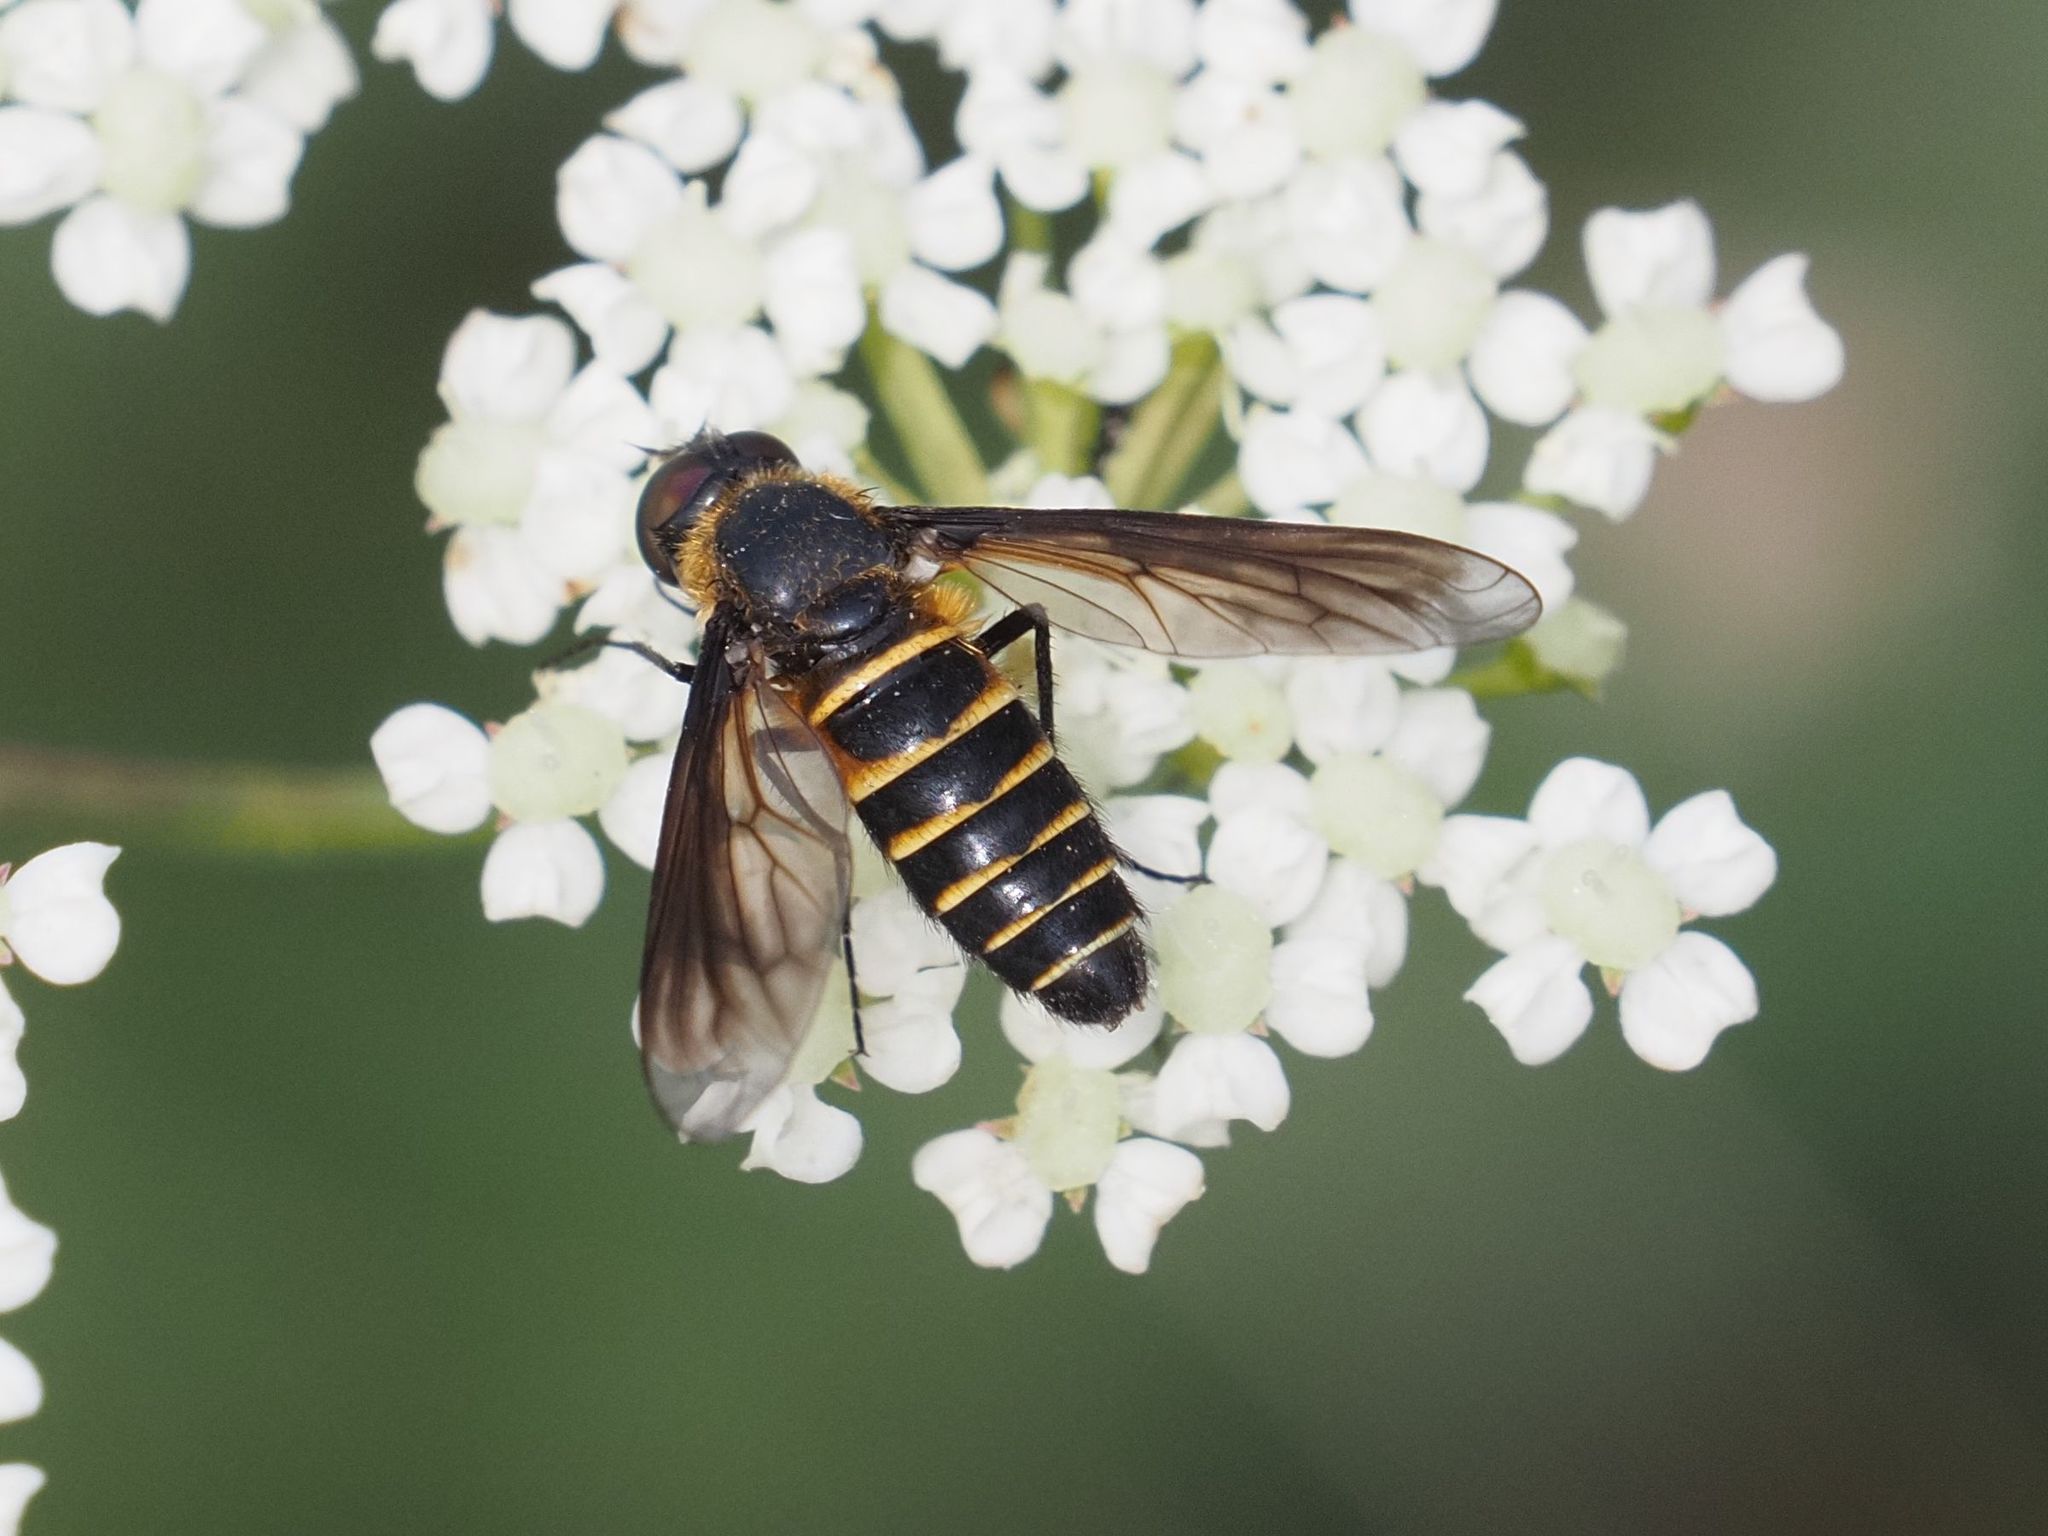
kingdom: Animalia
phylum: Arthropoda
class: Insecta
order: Diptera
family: Bombyliidae
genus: Lomatia
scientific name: Lomatia lateralis
